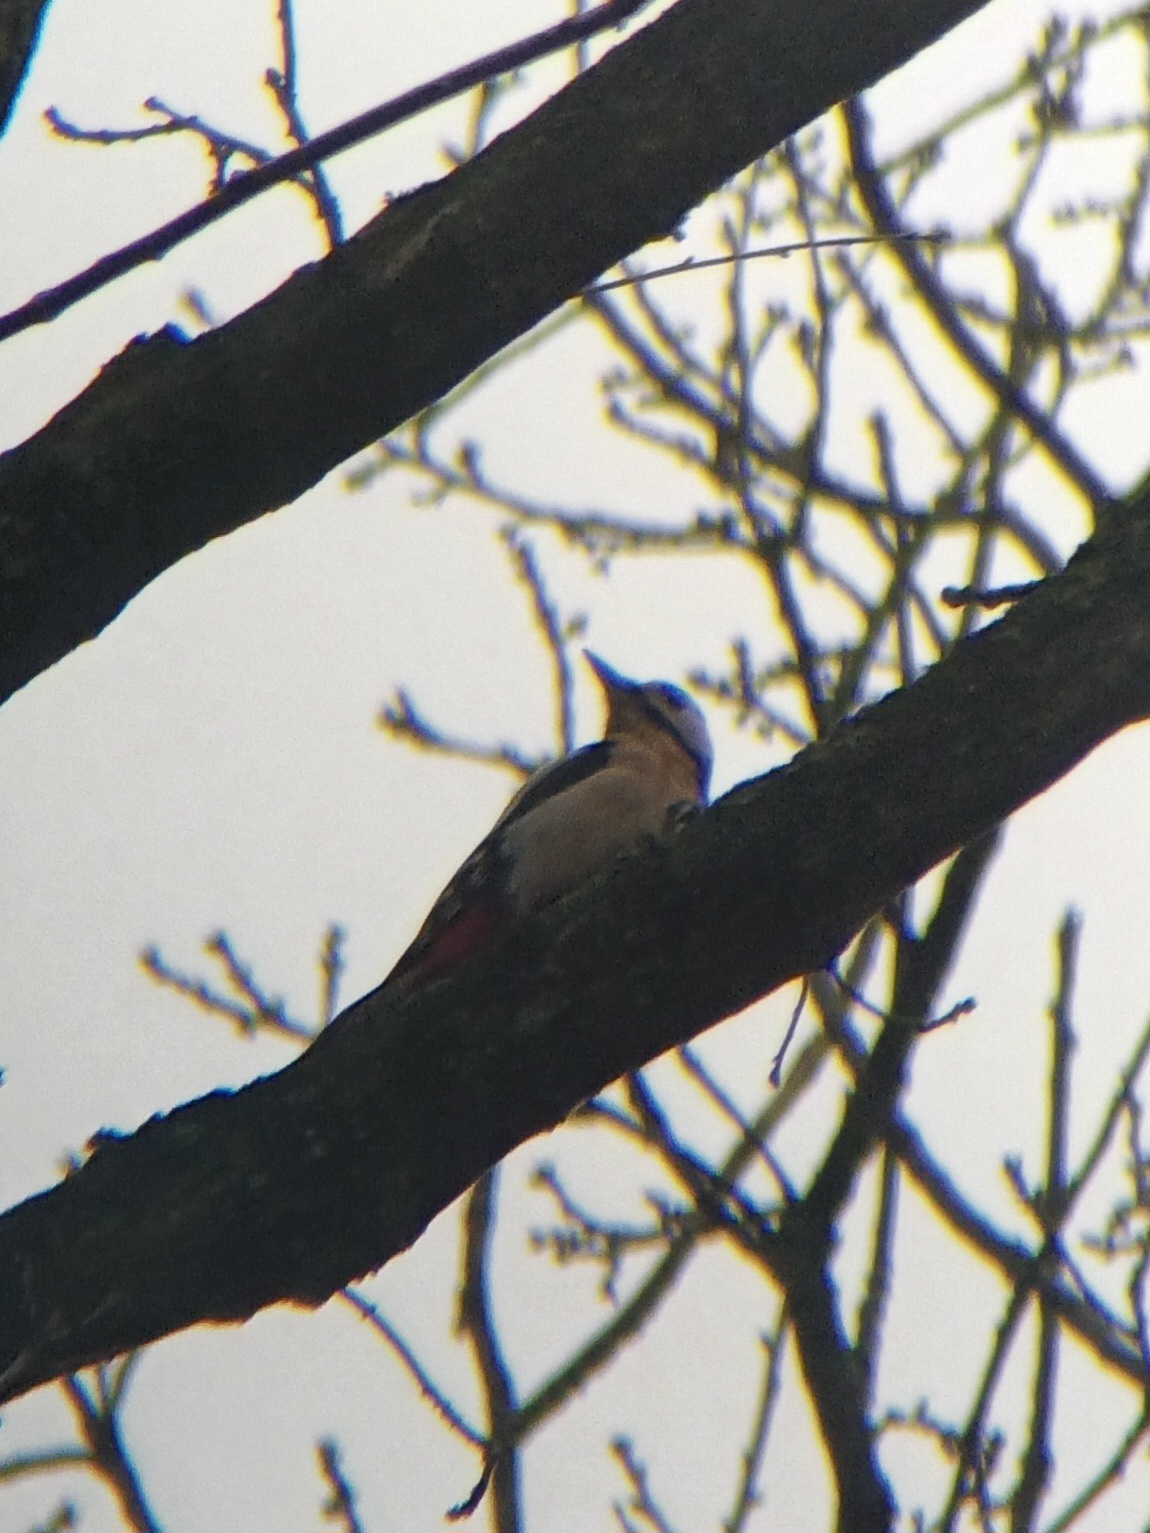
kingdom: Animalia
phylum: Chordata
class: Aves
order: Piciformes
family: Picidae
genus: Dendrocopos
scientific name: Dendrocopos major
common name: Great spotted woodpecker
